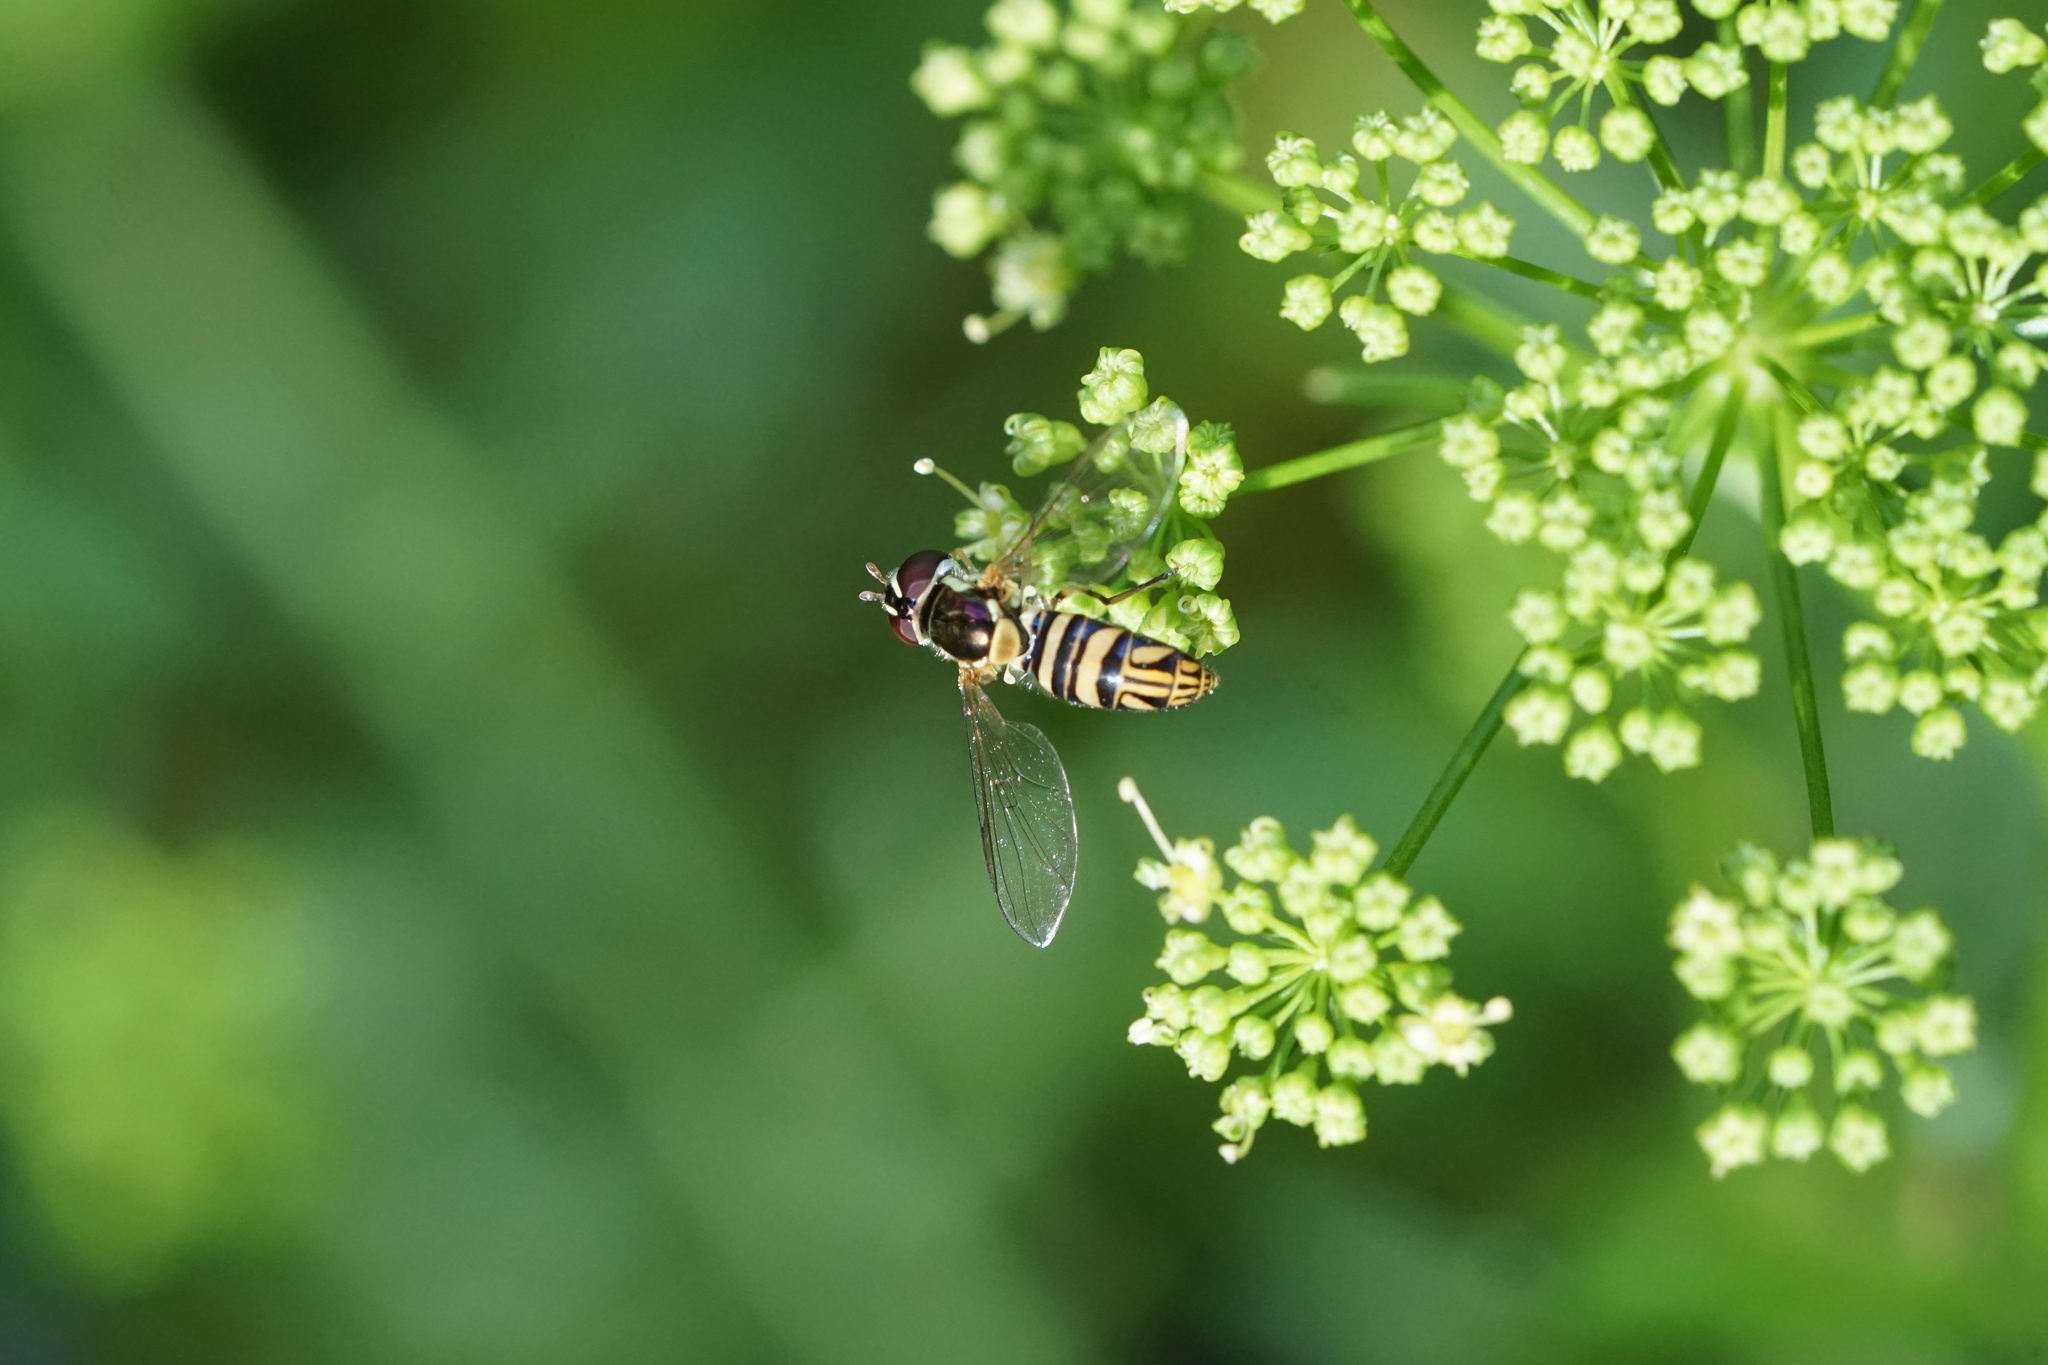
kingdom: Animalia
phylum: Arthropoda
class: Insecta
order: Diptera
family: Syrphidae
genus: Allograpta
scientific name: Allograpta obliqua
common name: Common oblique syrphid
